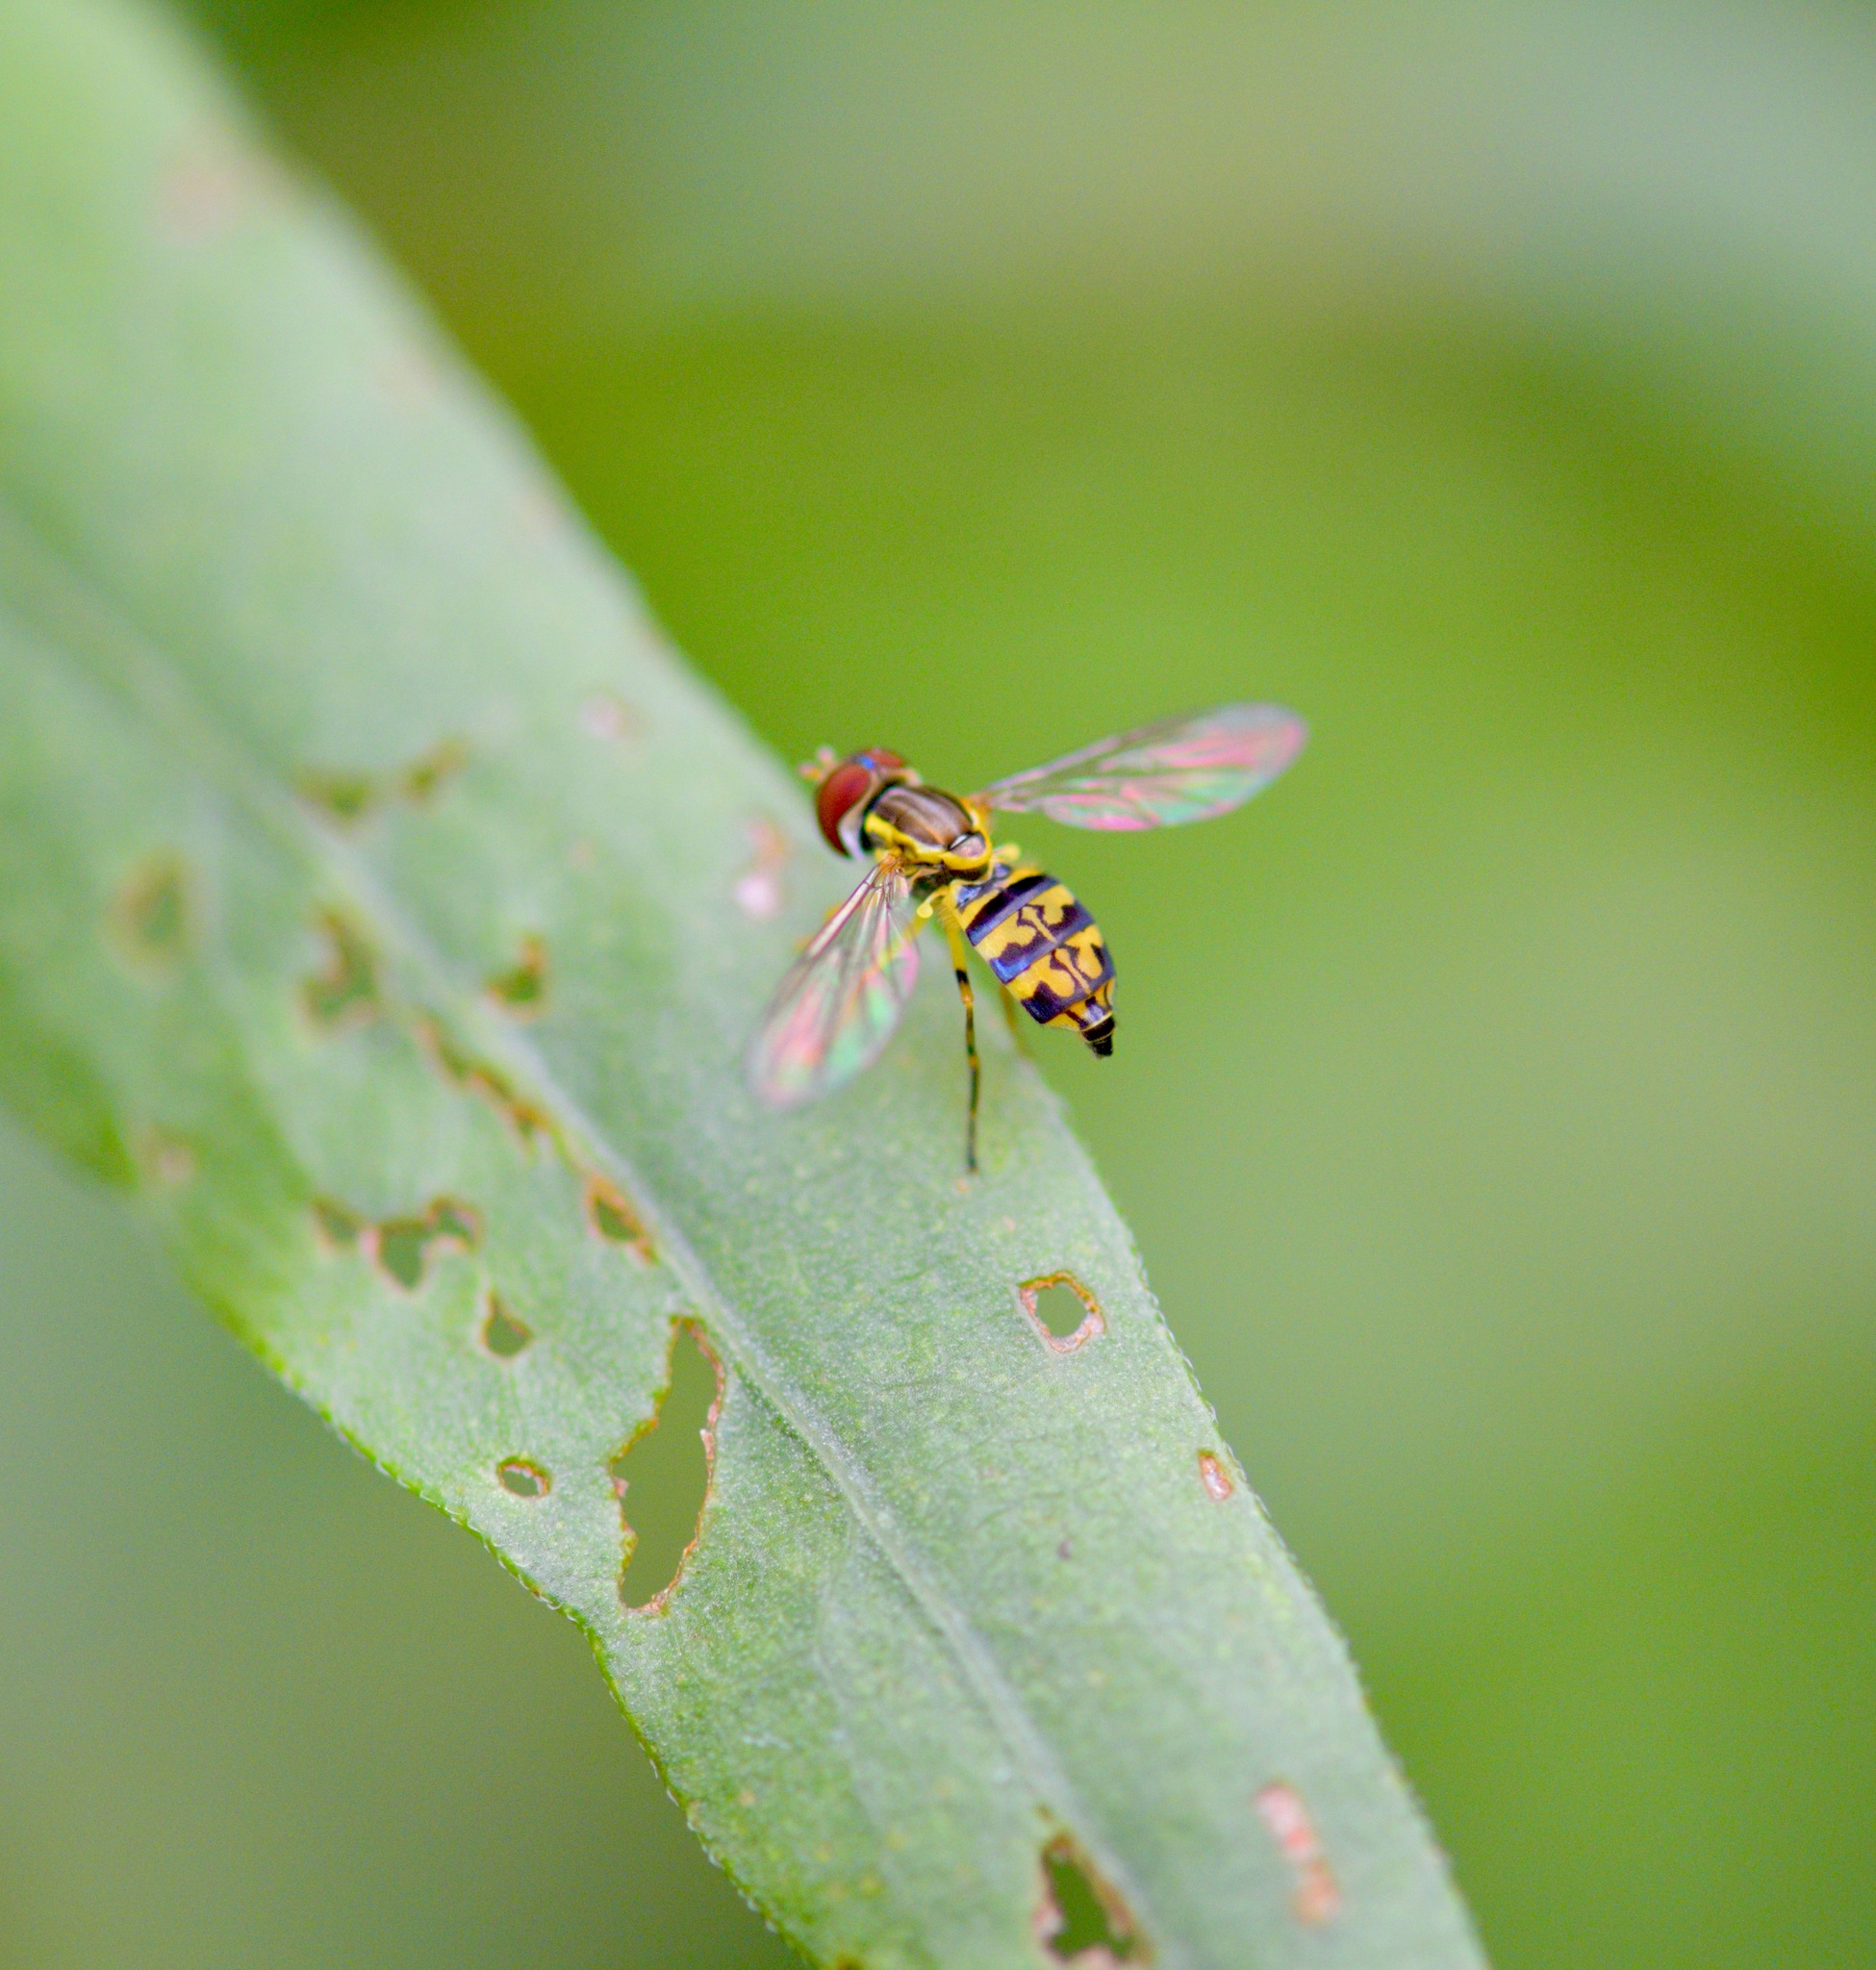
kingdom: Animalia
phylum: Arthropoda
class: Insecta
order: Diptera
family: Syrphidae
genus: Toxomerus
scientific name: Toxomerus geminatus
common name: Eastern calligrapher
